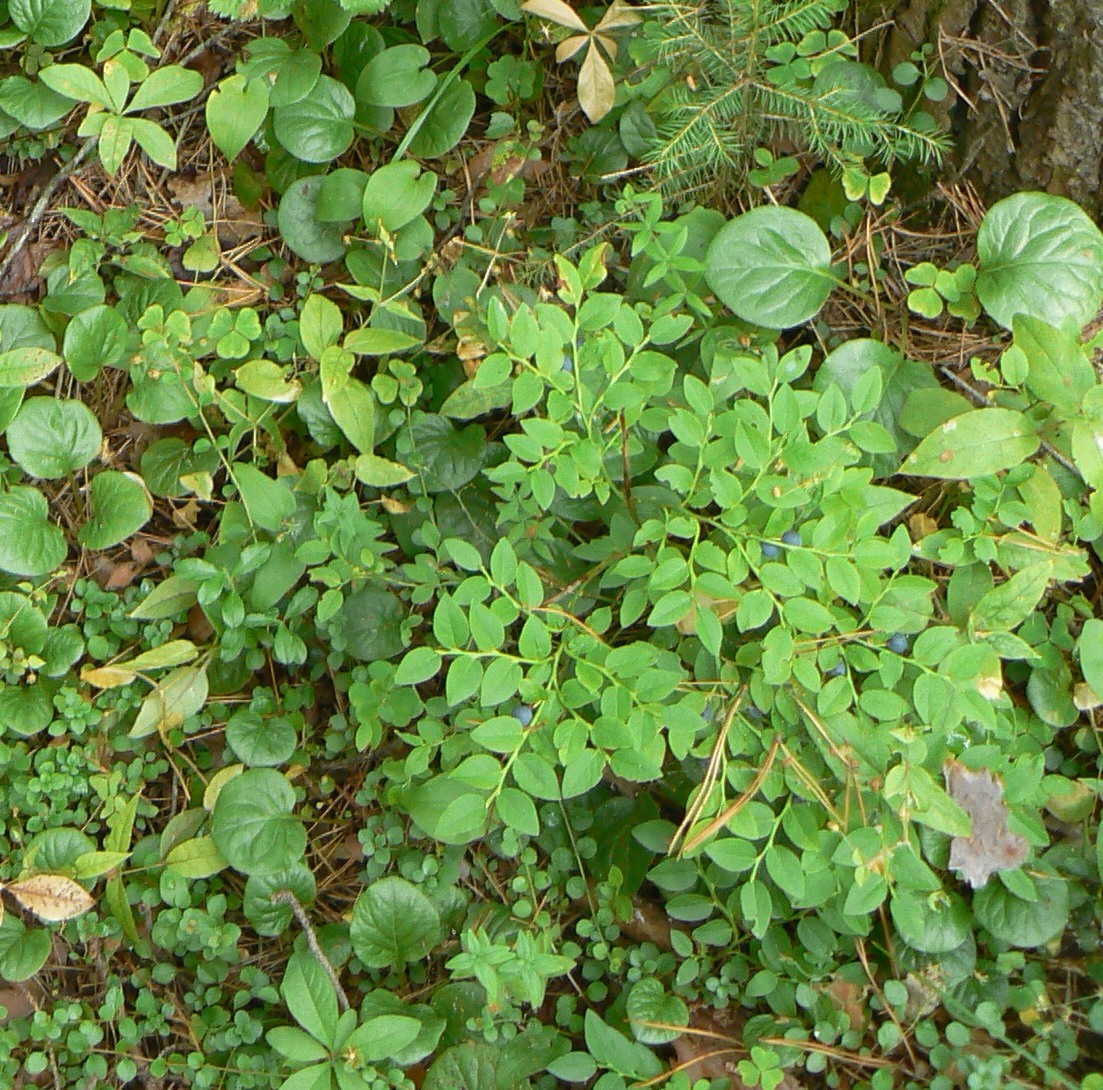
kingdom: Plantae
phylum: Tracheophyta
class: Magnoliopsida
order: Ericales
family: Ericaceae
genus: Vaccinium
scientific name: Vaccinium myrtillus
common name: Bilberry
